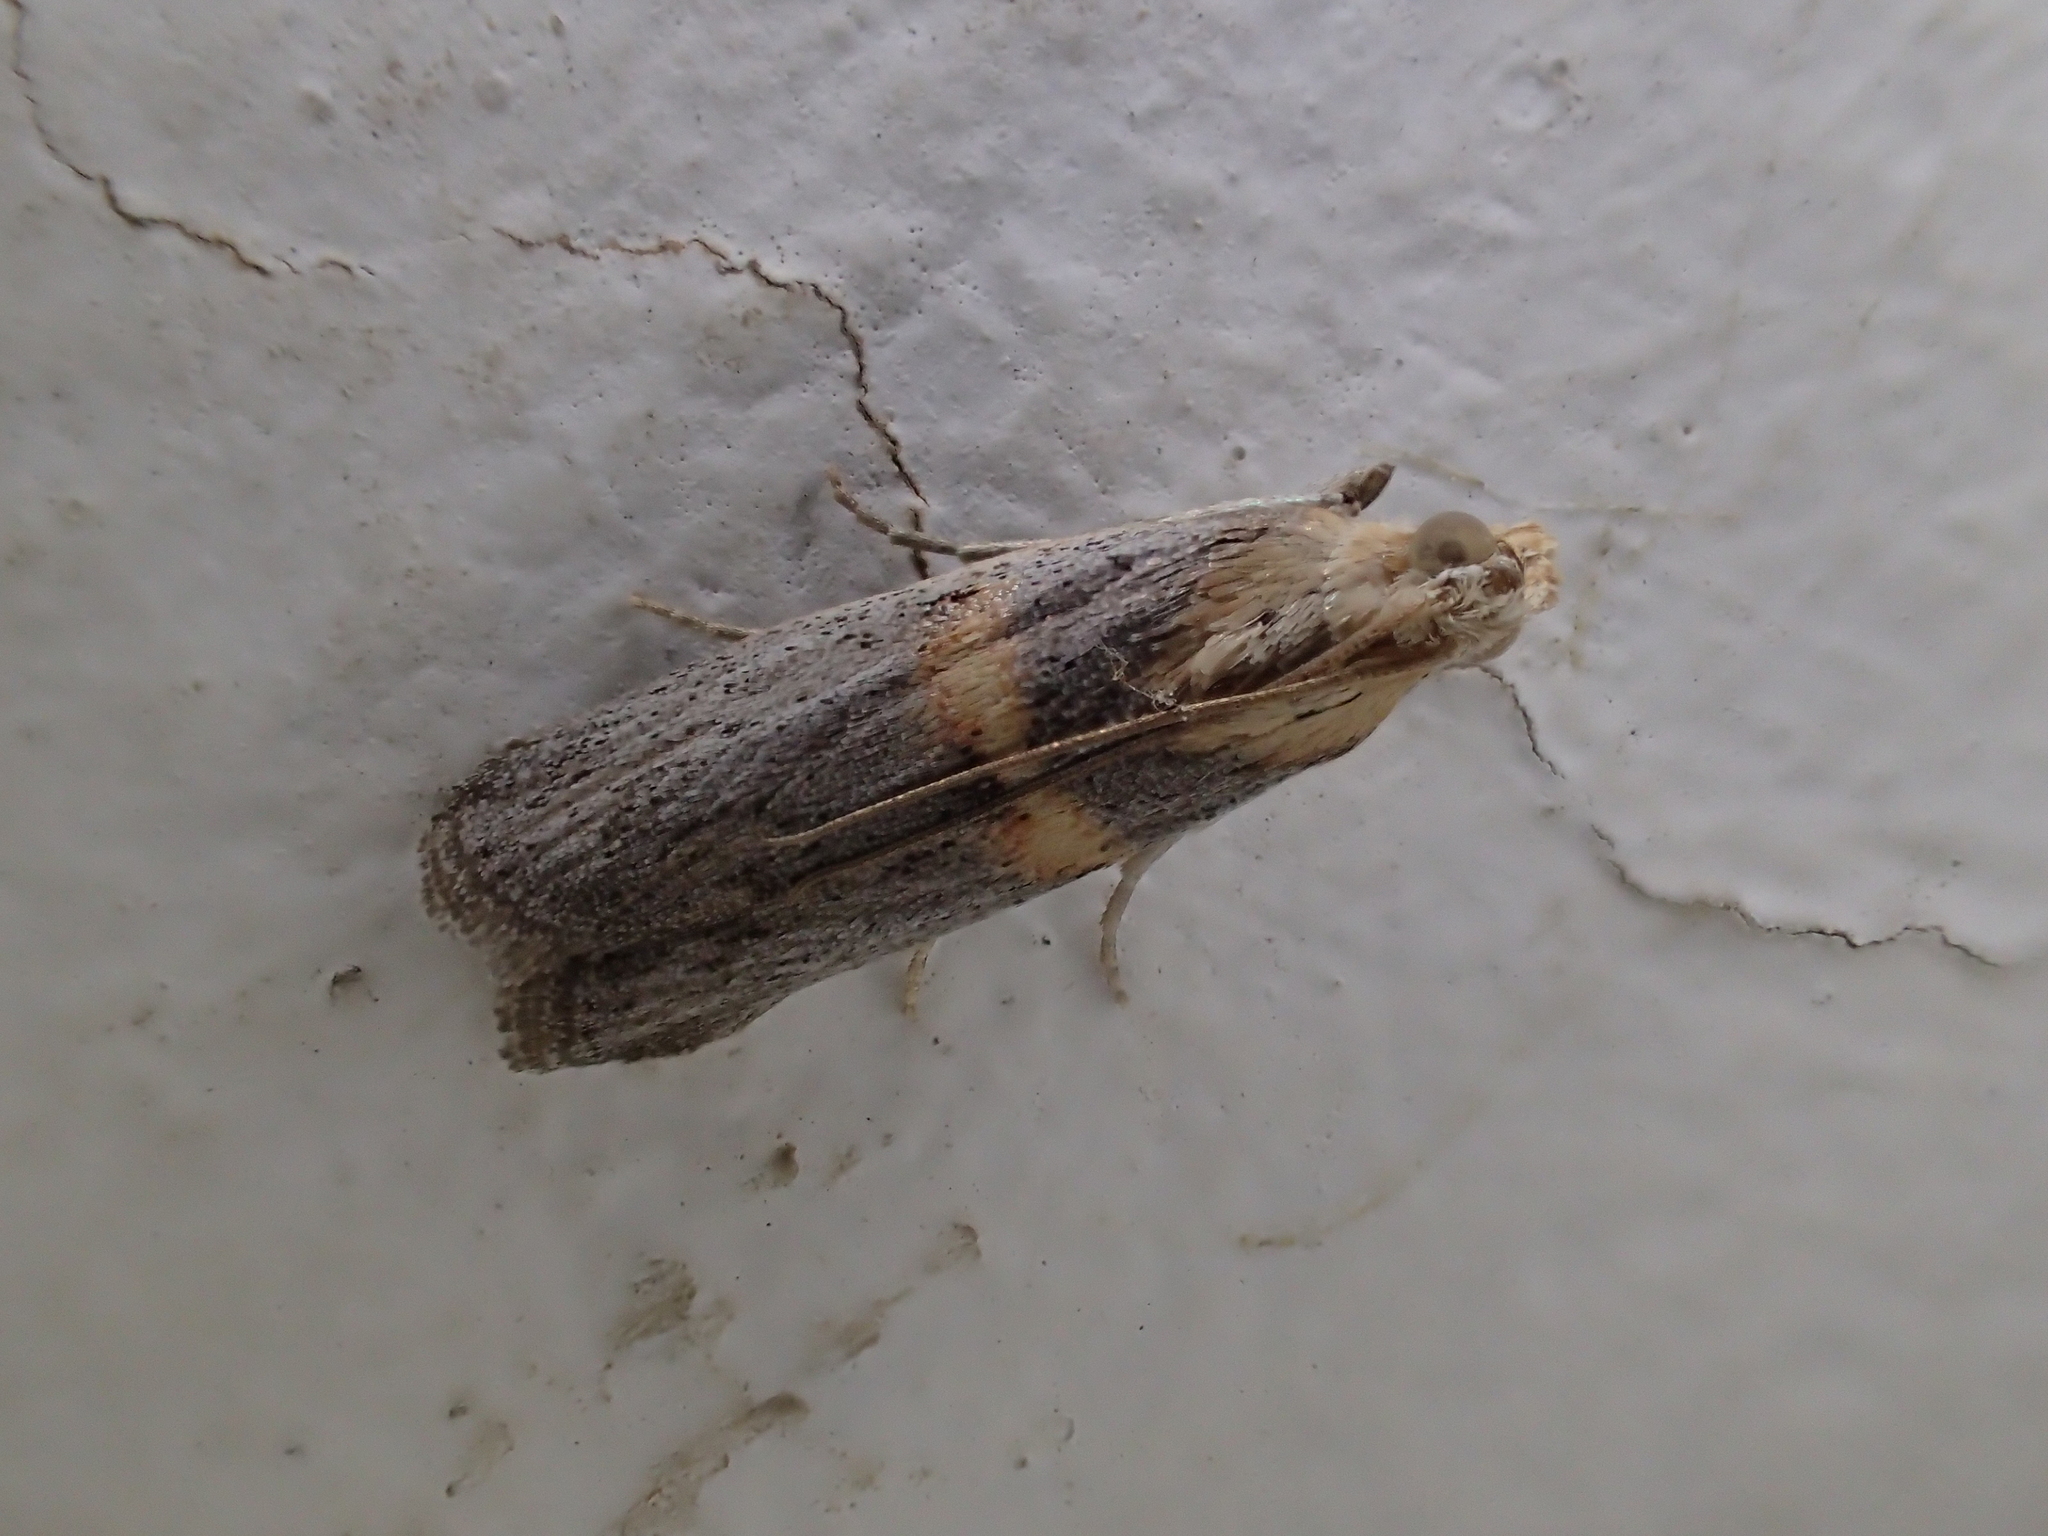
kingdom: Animalia
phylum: Arthropoda
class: Insecta
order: Lepidoptera
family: Pyralidae
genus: Oxybia
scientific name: Oxybia transversella
